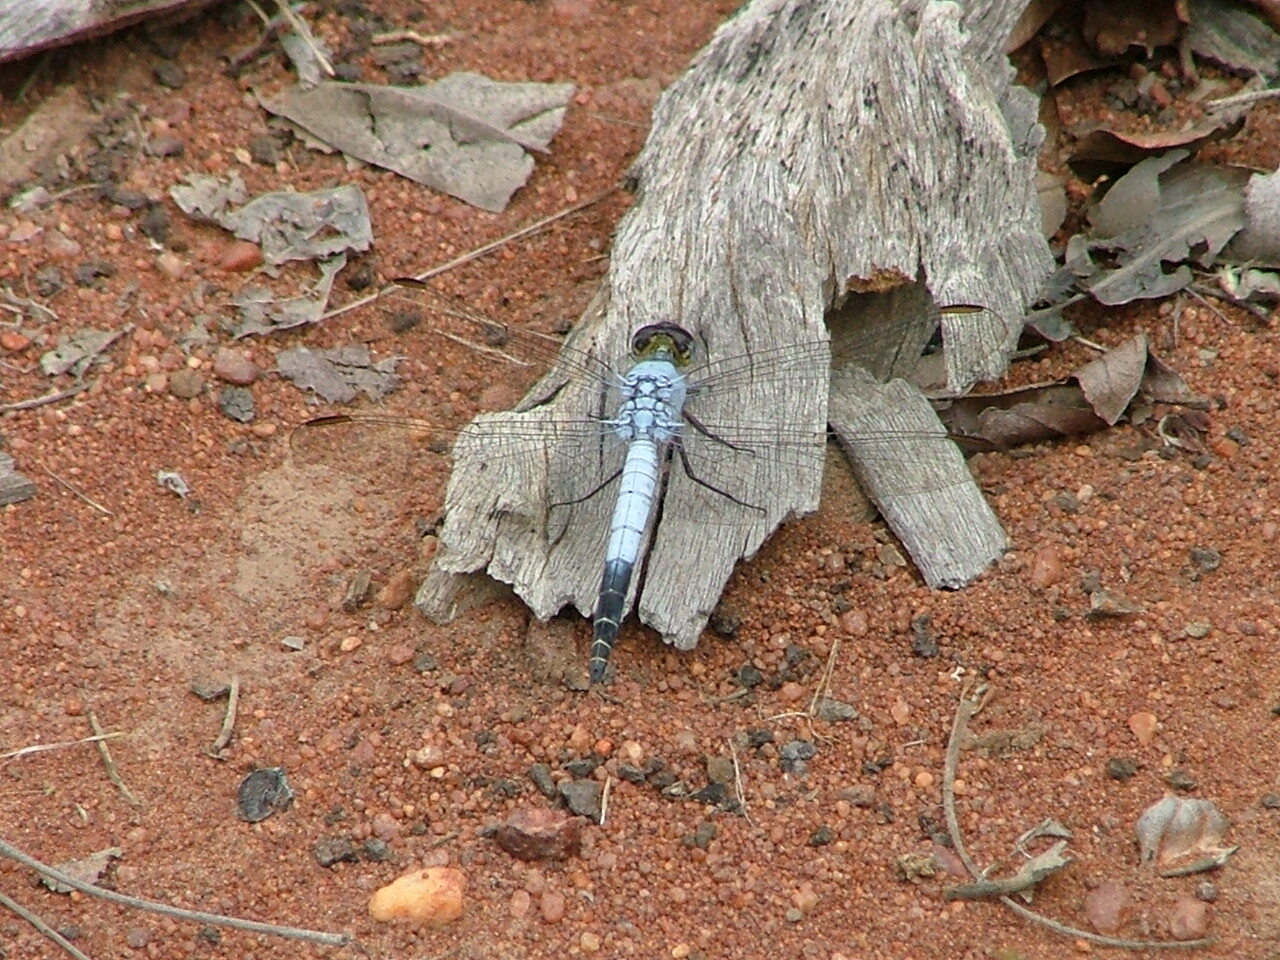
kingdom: Animalia
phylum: Arthropoda
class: Insecta
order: Odonata
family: Libellulidae
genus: Nesciothemis
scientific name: Nesciothemis farinosa
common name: Eastern blacktail
